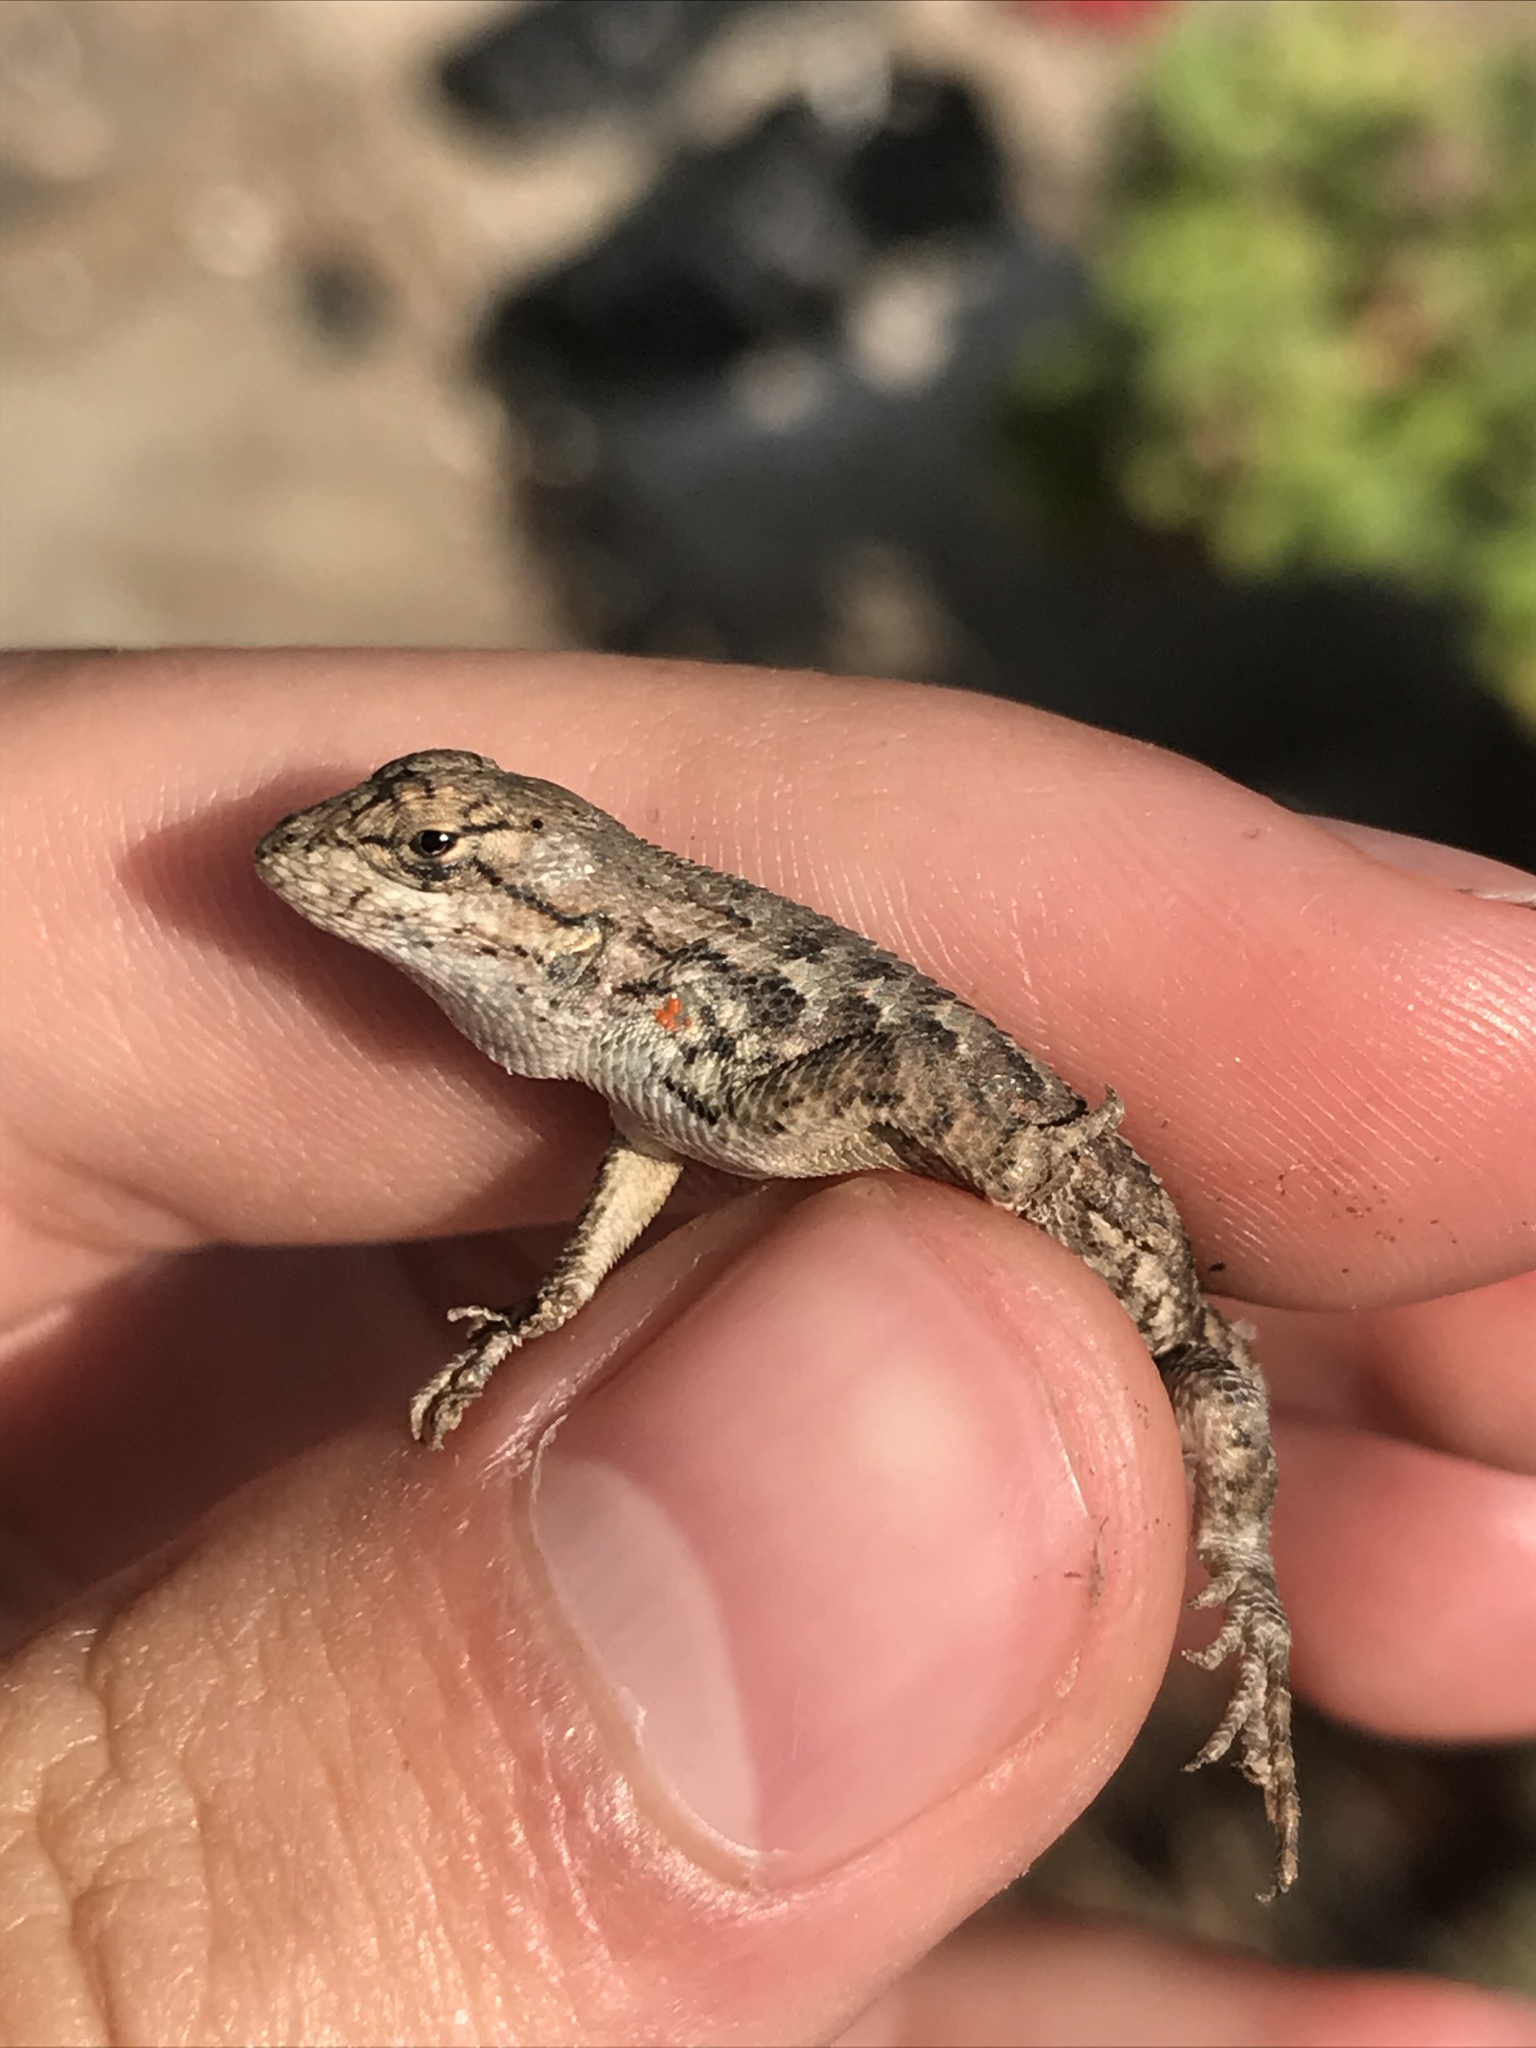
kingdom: Animalia
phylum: Chordata
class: Squamata
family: Phrynosomatidae
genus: Sceloporus
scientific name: Sceloporus occidentalis
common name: Western fence lizard
